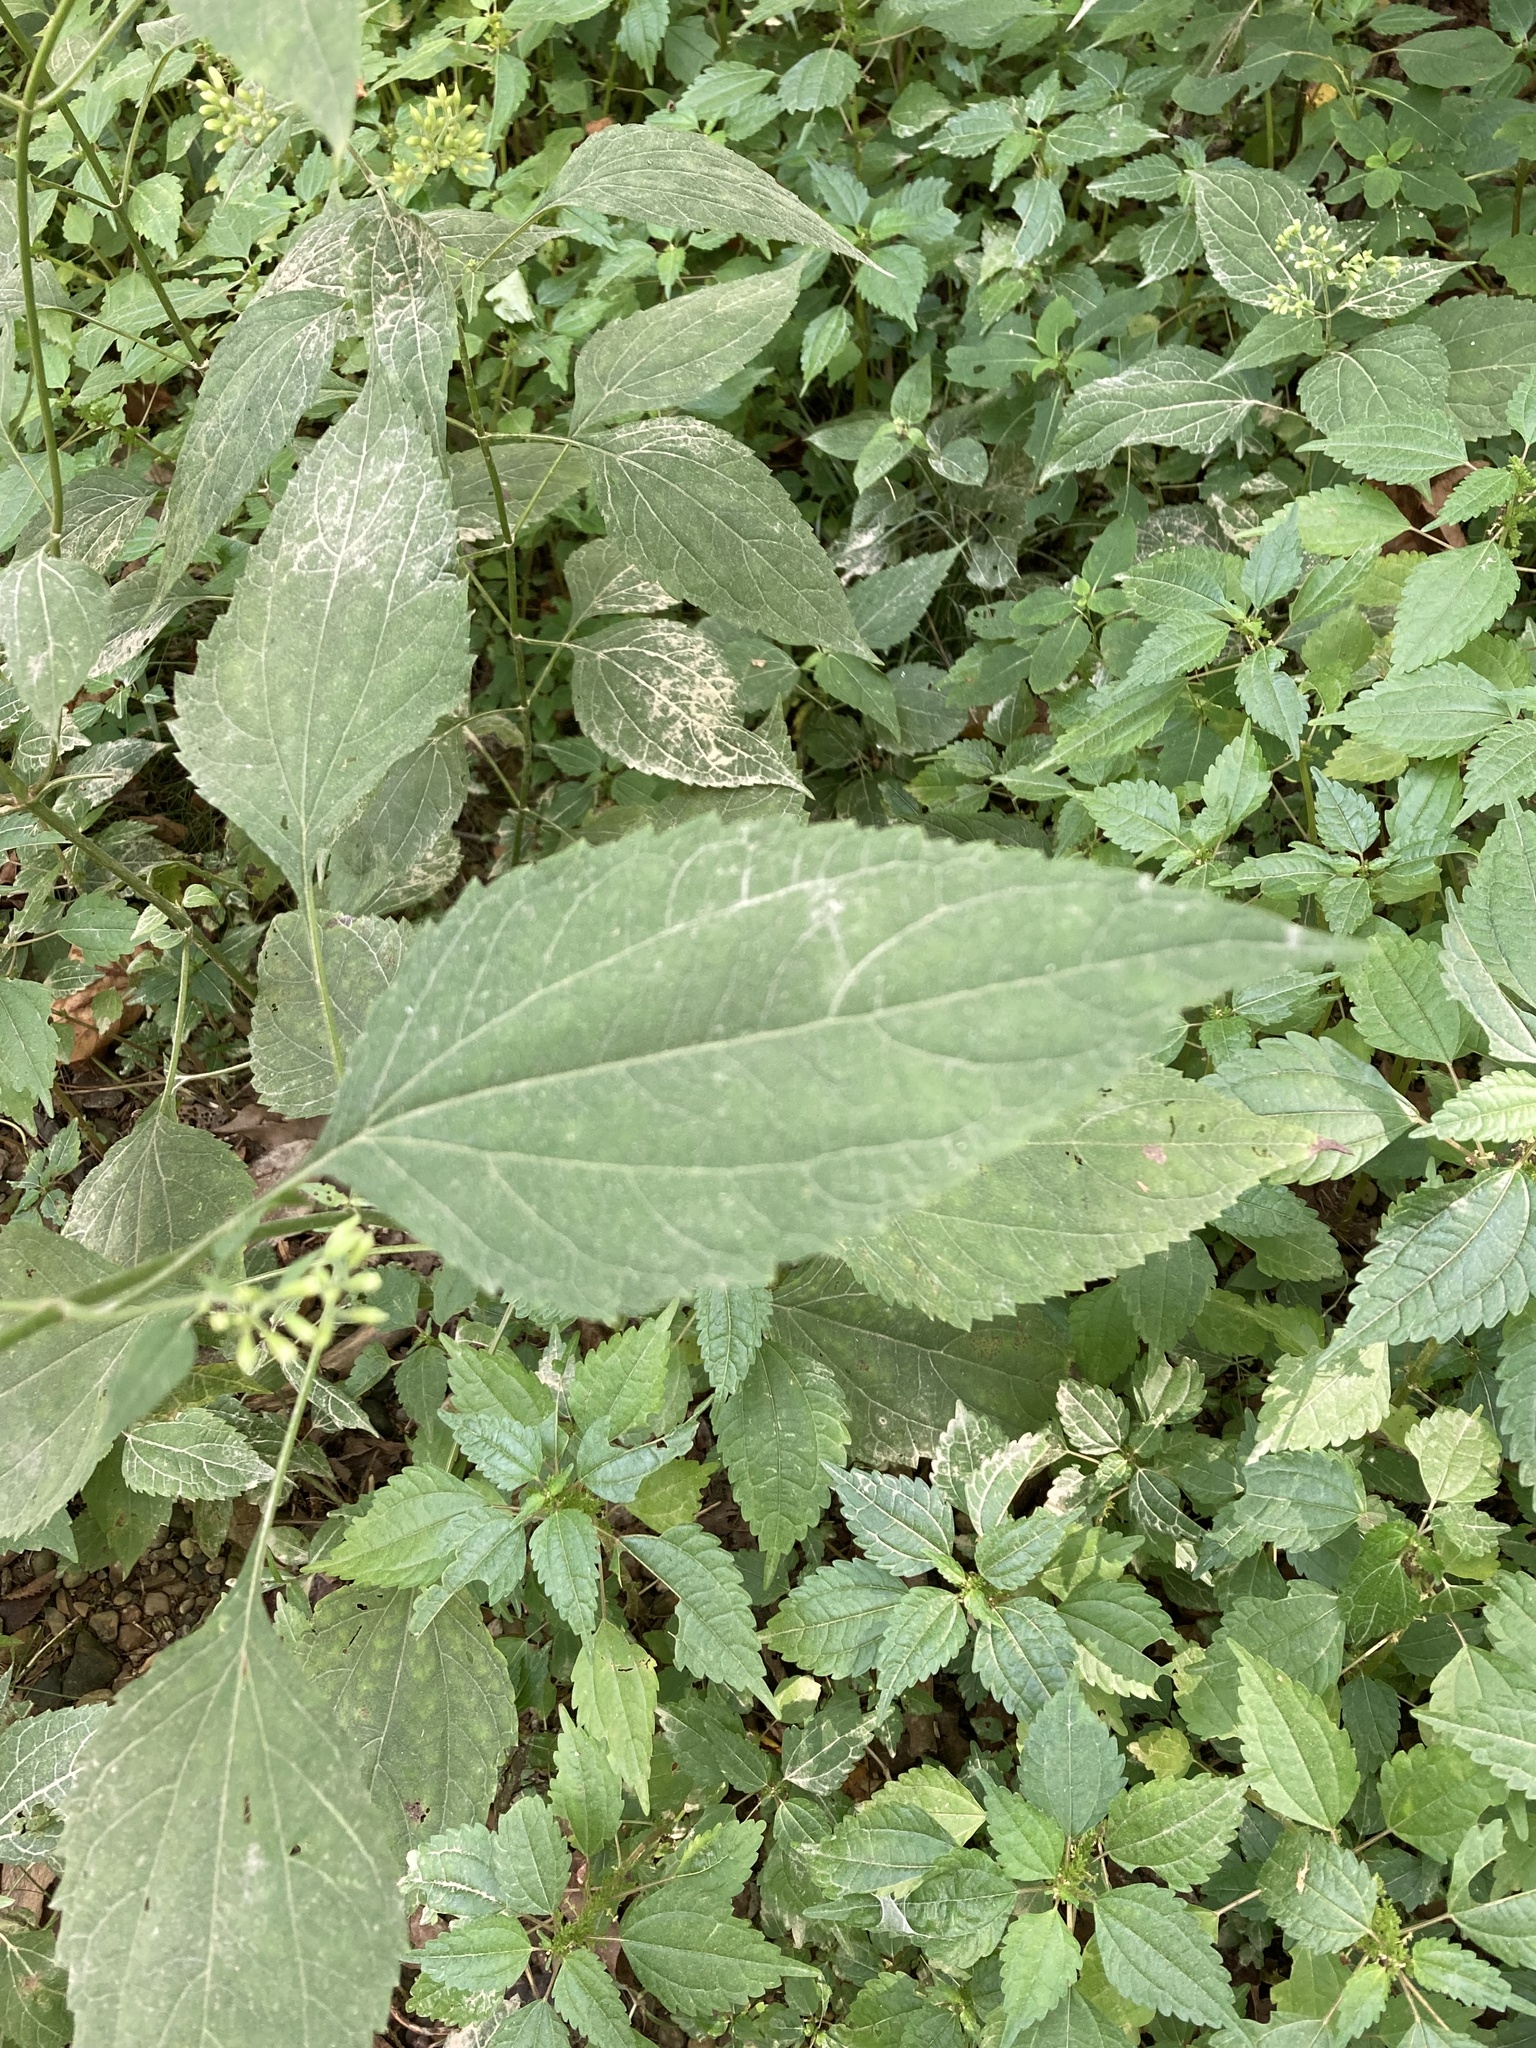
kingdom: Plantae
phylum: Tracheophyta
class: Magnoliopsida
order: Asterales
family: Asteraceae
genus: Ageratina
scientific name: Ageratina altissima
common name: White snakeroot
